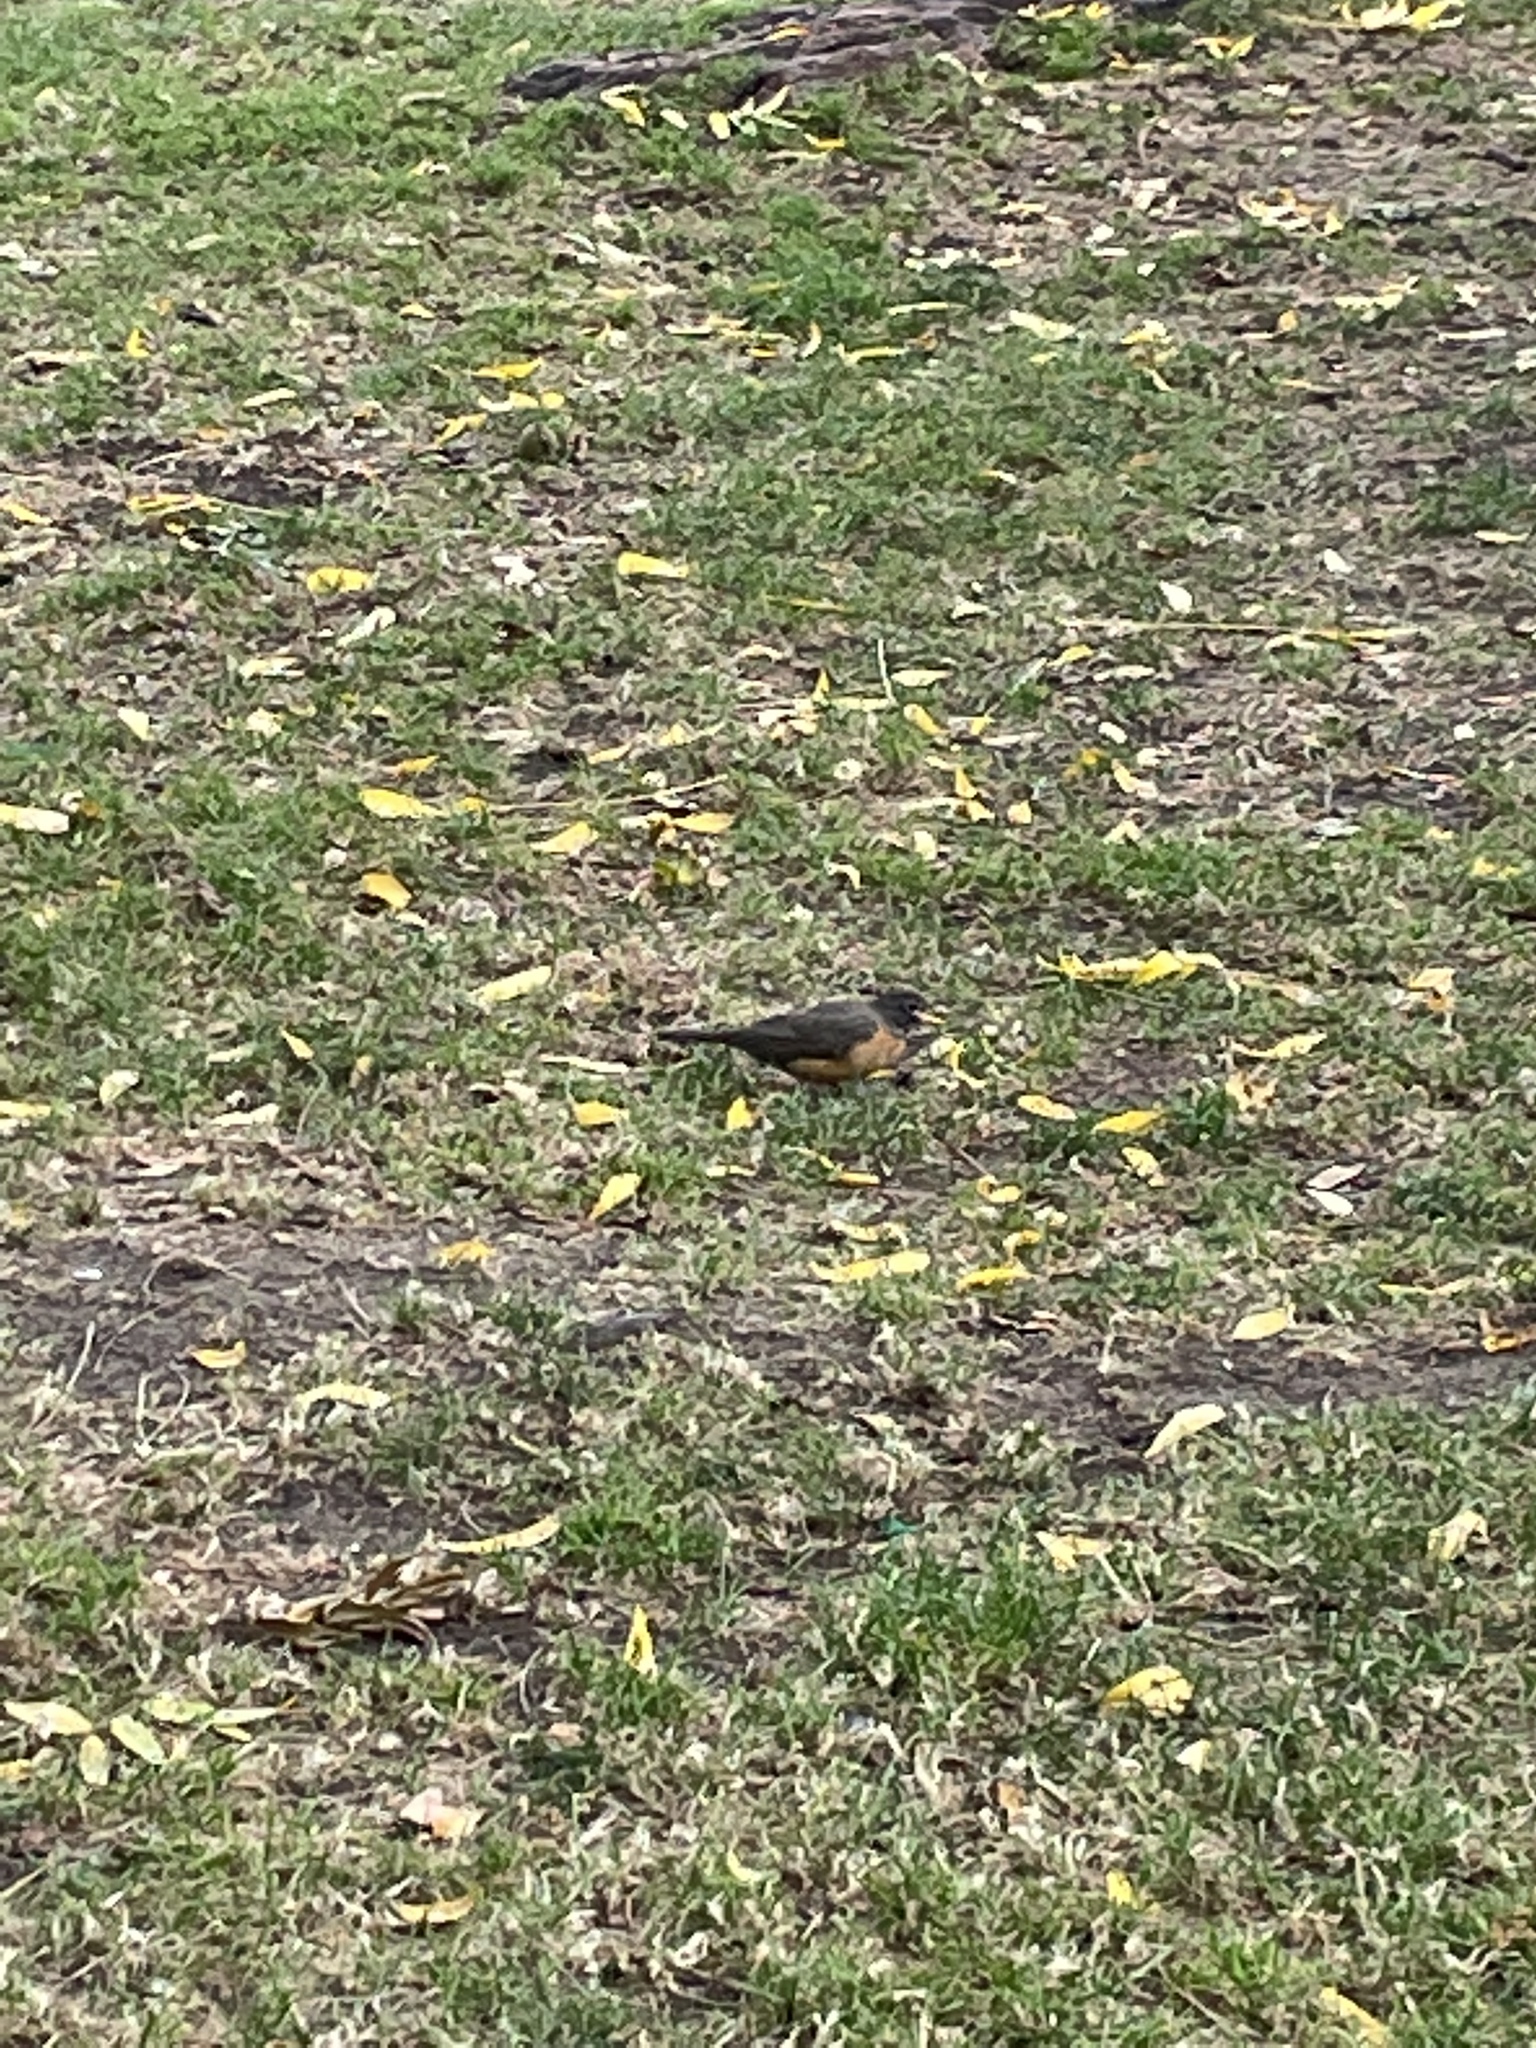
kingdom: Animalia
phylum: Chordata
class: Aves
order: Passeriformes
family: Turdidae
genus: Turdus
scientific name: Turdus migratorius
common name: American robin
